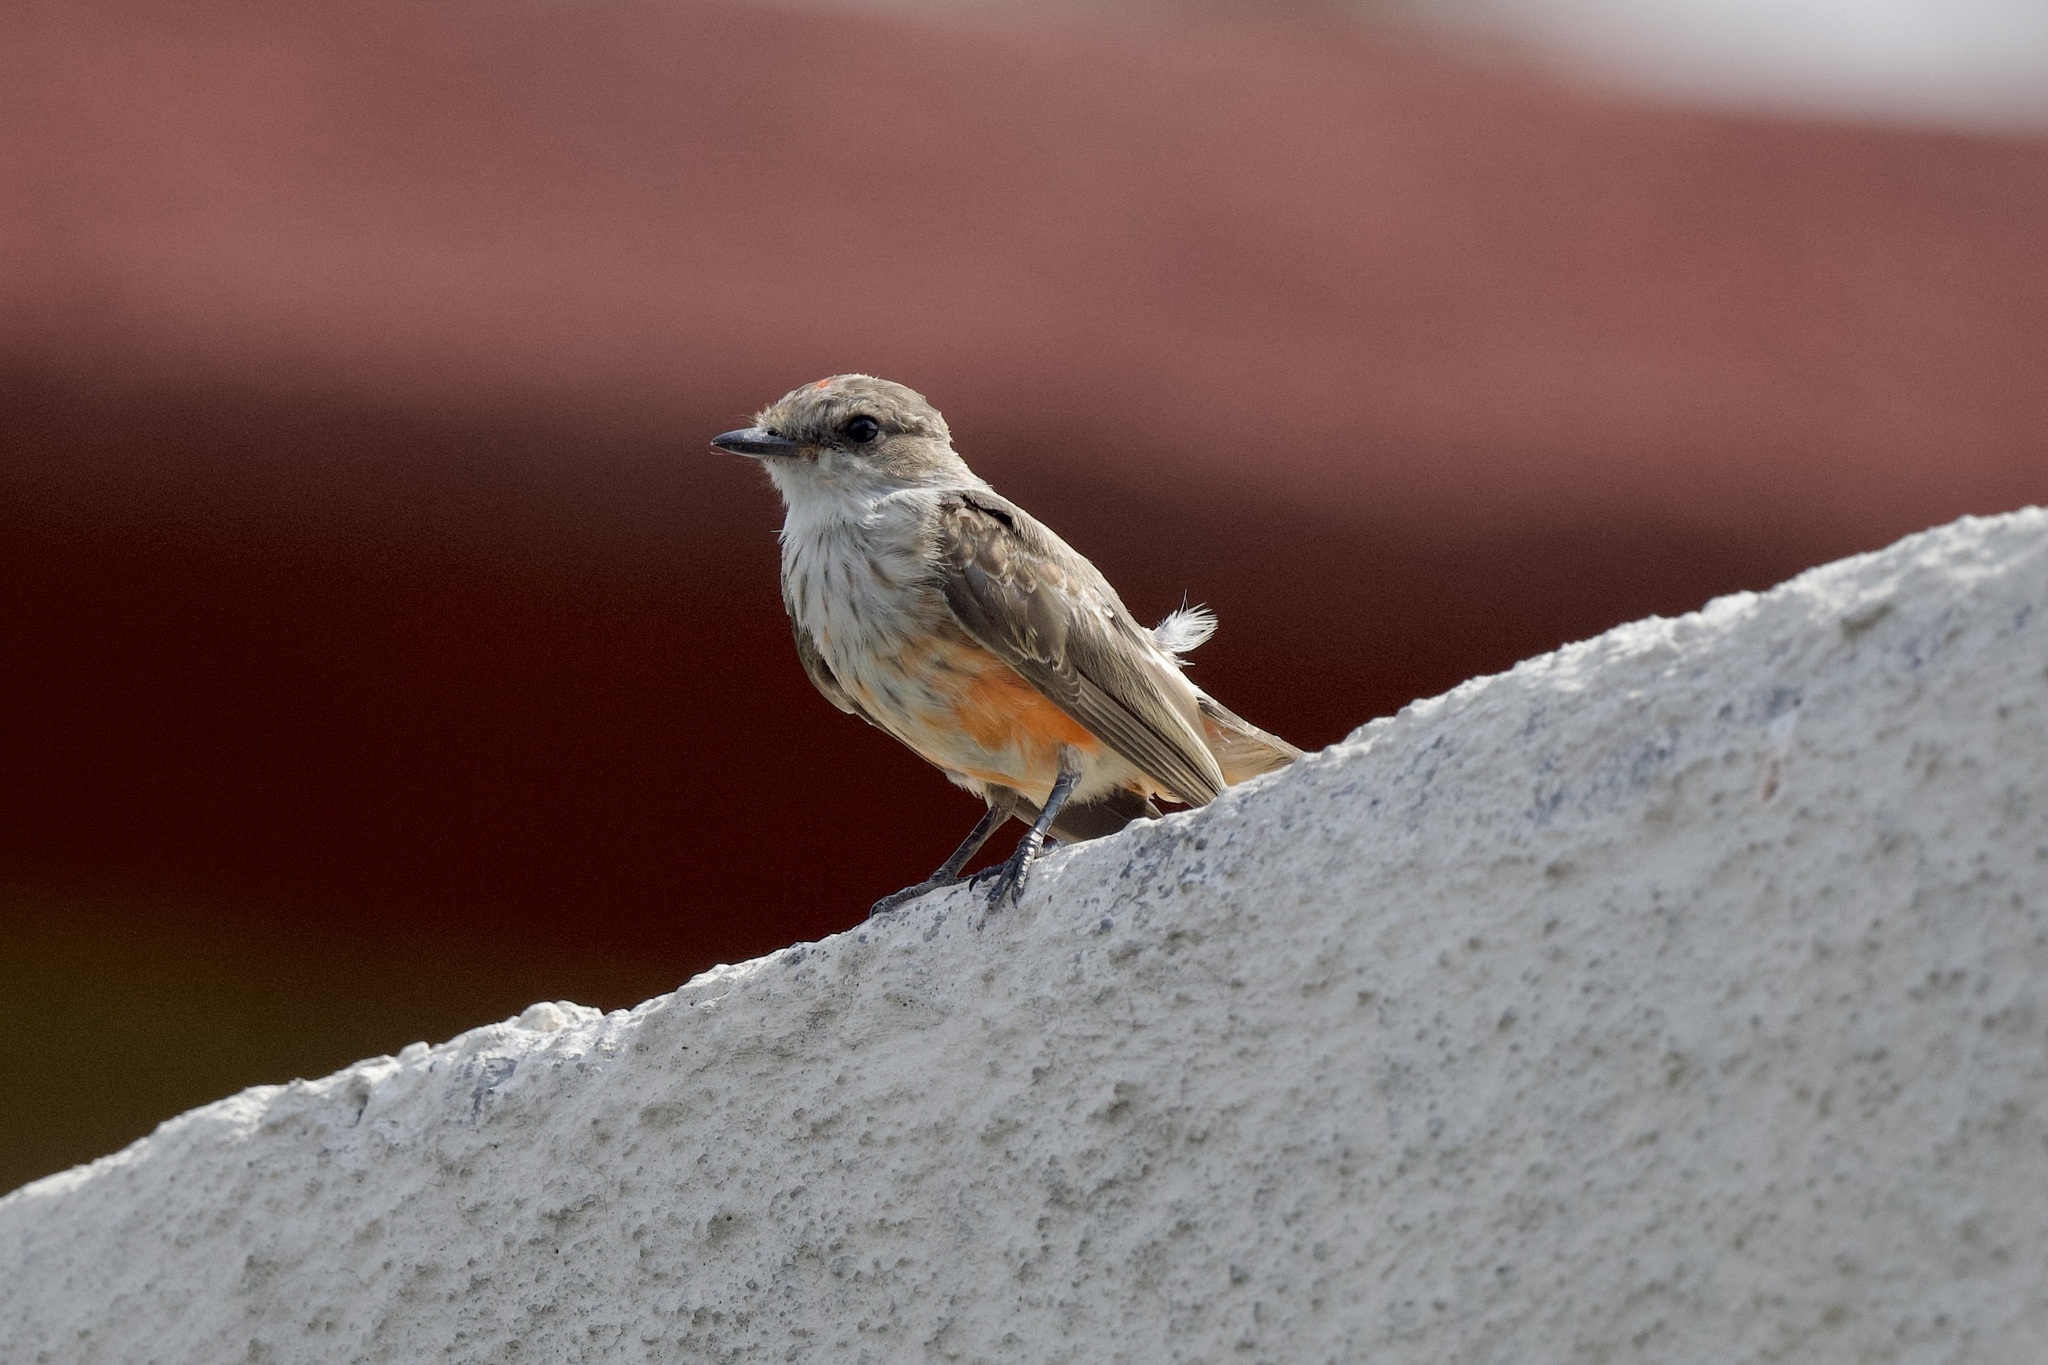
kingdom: Animalia
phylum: Chordata
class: Aves
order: Passeriformes
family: Tyrannidae
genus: Pyrocephalus
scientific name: Pyrocephalus rubinus
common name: Vermilion flycatcher
